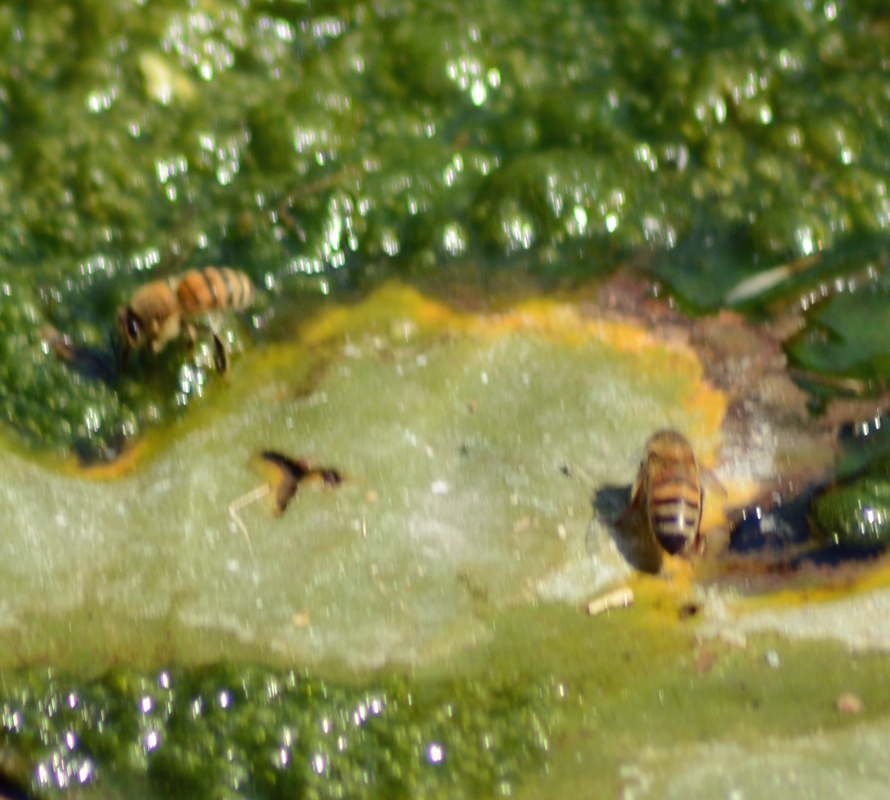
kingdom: Animalia
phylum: Arthropoda
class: Insecta
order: Hymenoptera
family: Apidae
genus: Apis
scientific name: Apis mellifera
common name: Honey bee
